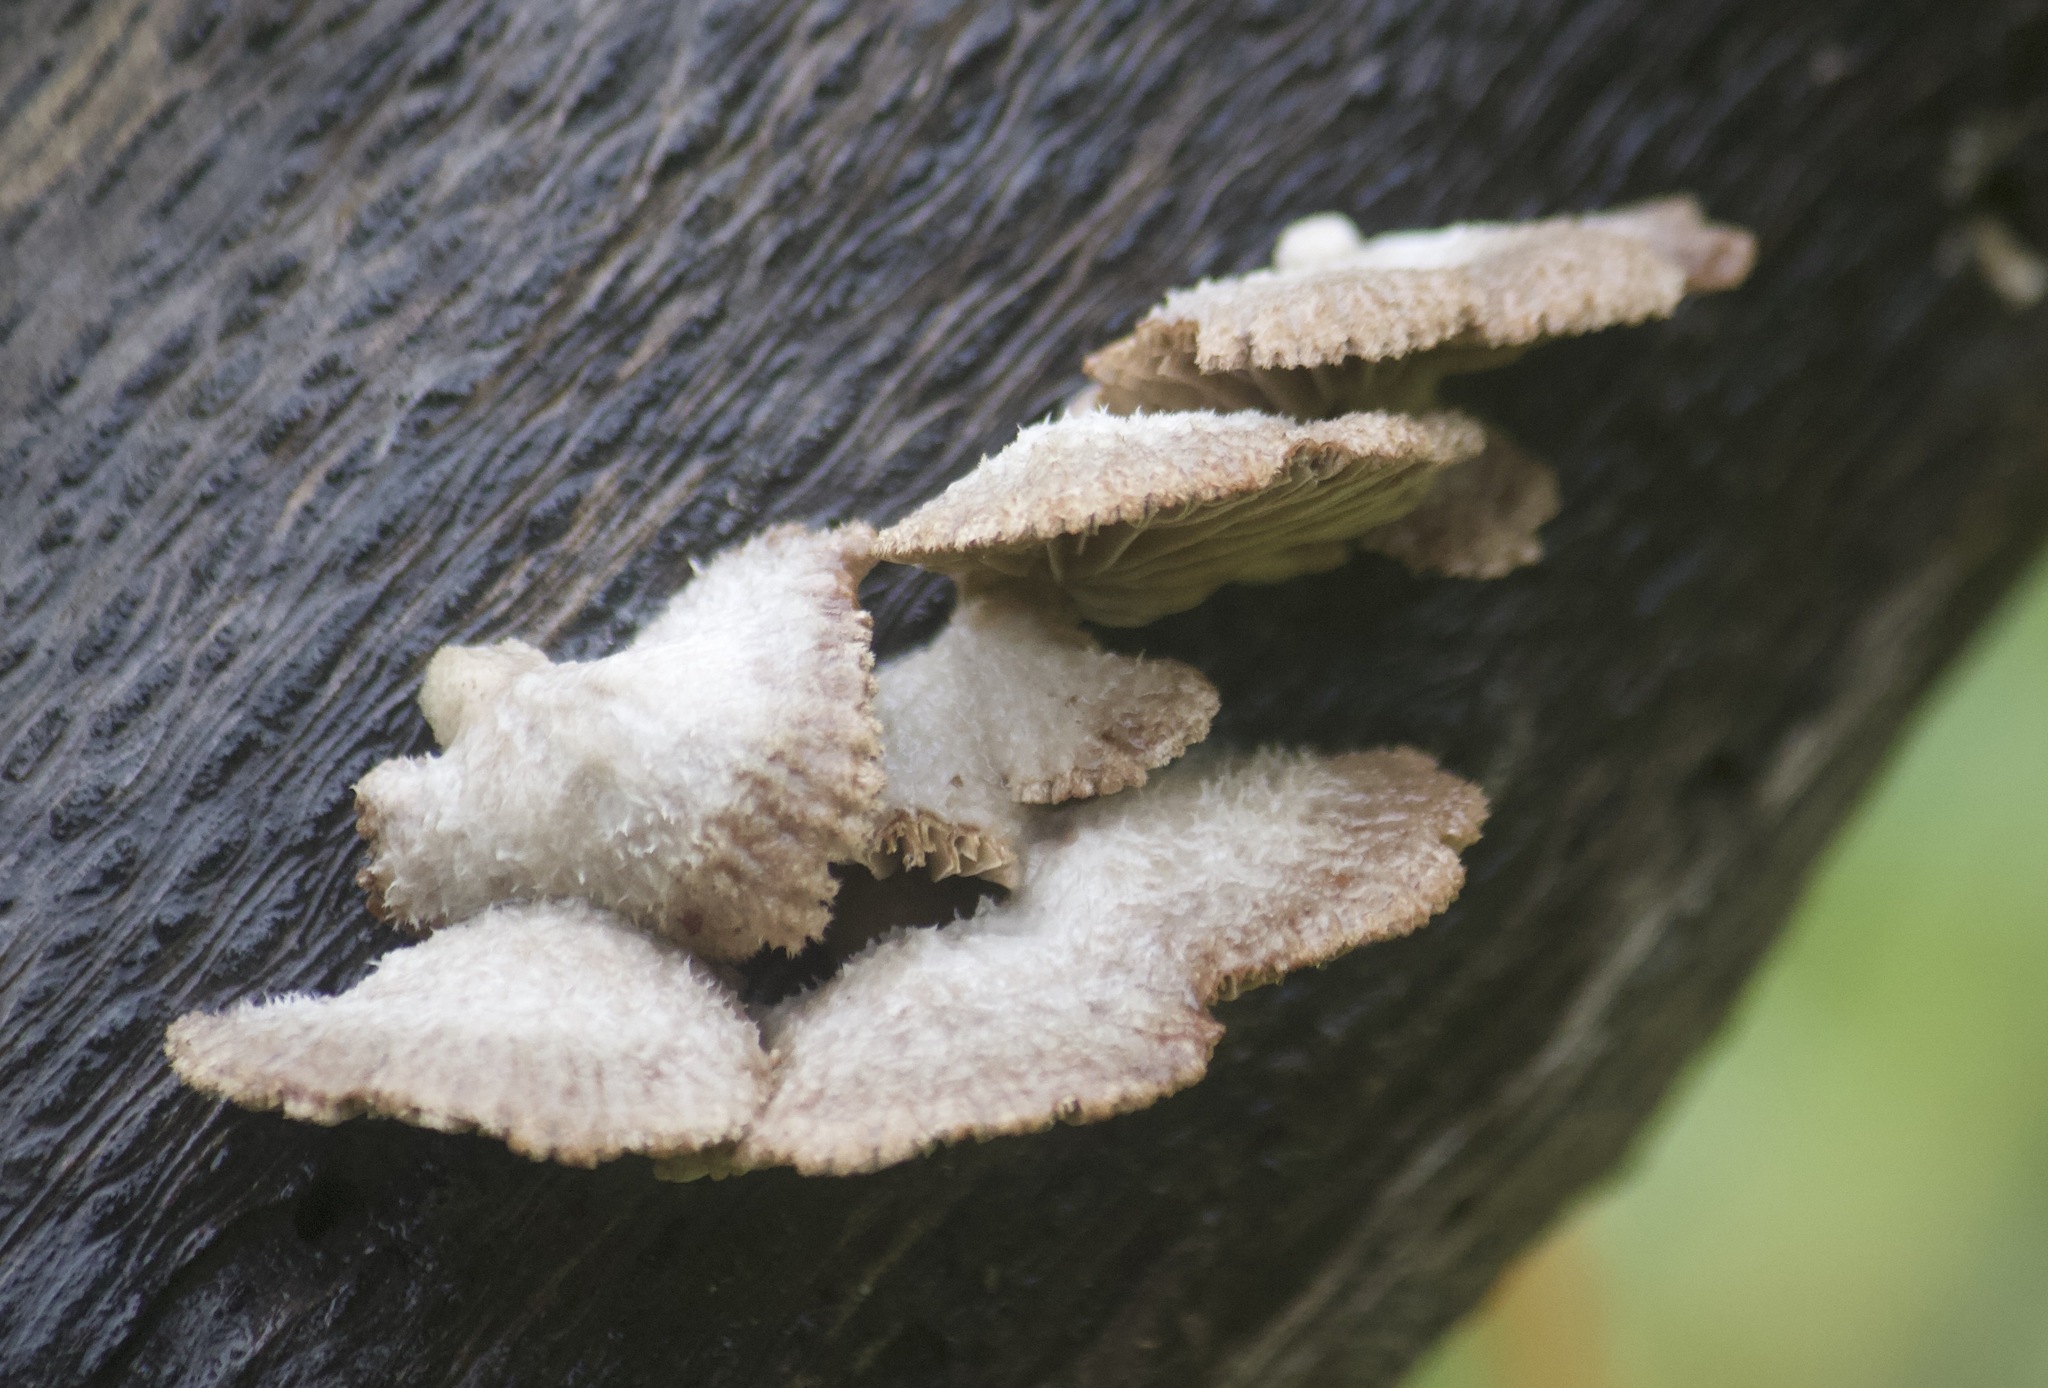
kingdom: Fungi
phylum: Basidiomycota
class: Agaricomycetes
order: Agaricales
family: Schizophyllaceae
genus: Schizophyllum
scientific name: Schizophyllum commune
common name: Common porecrust
